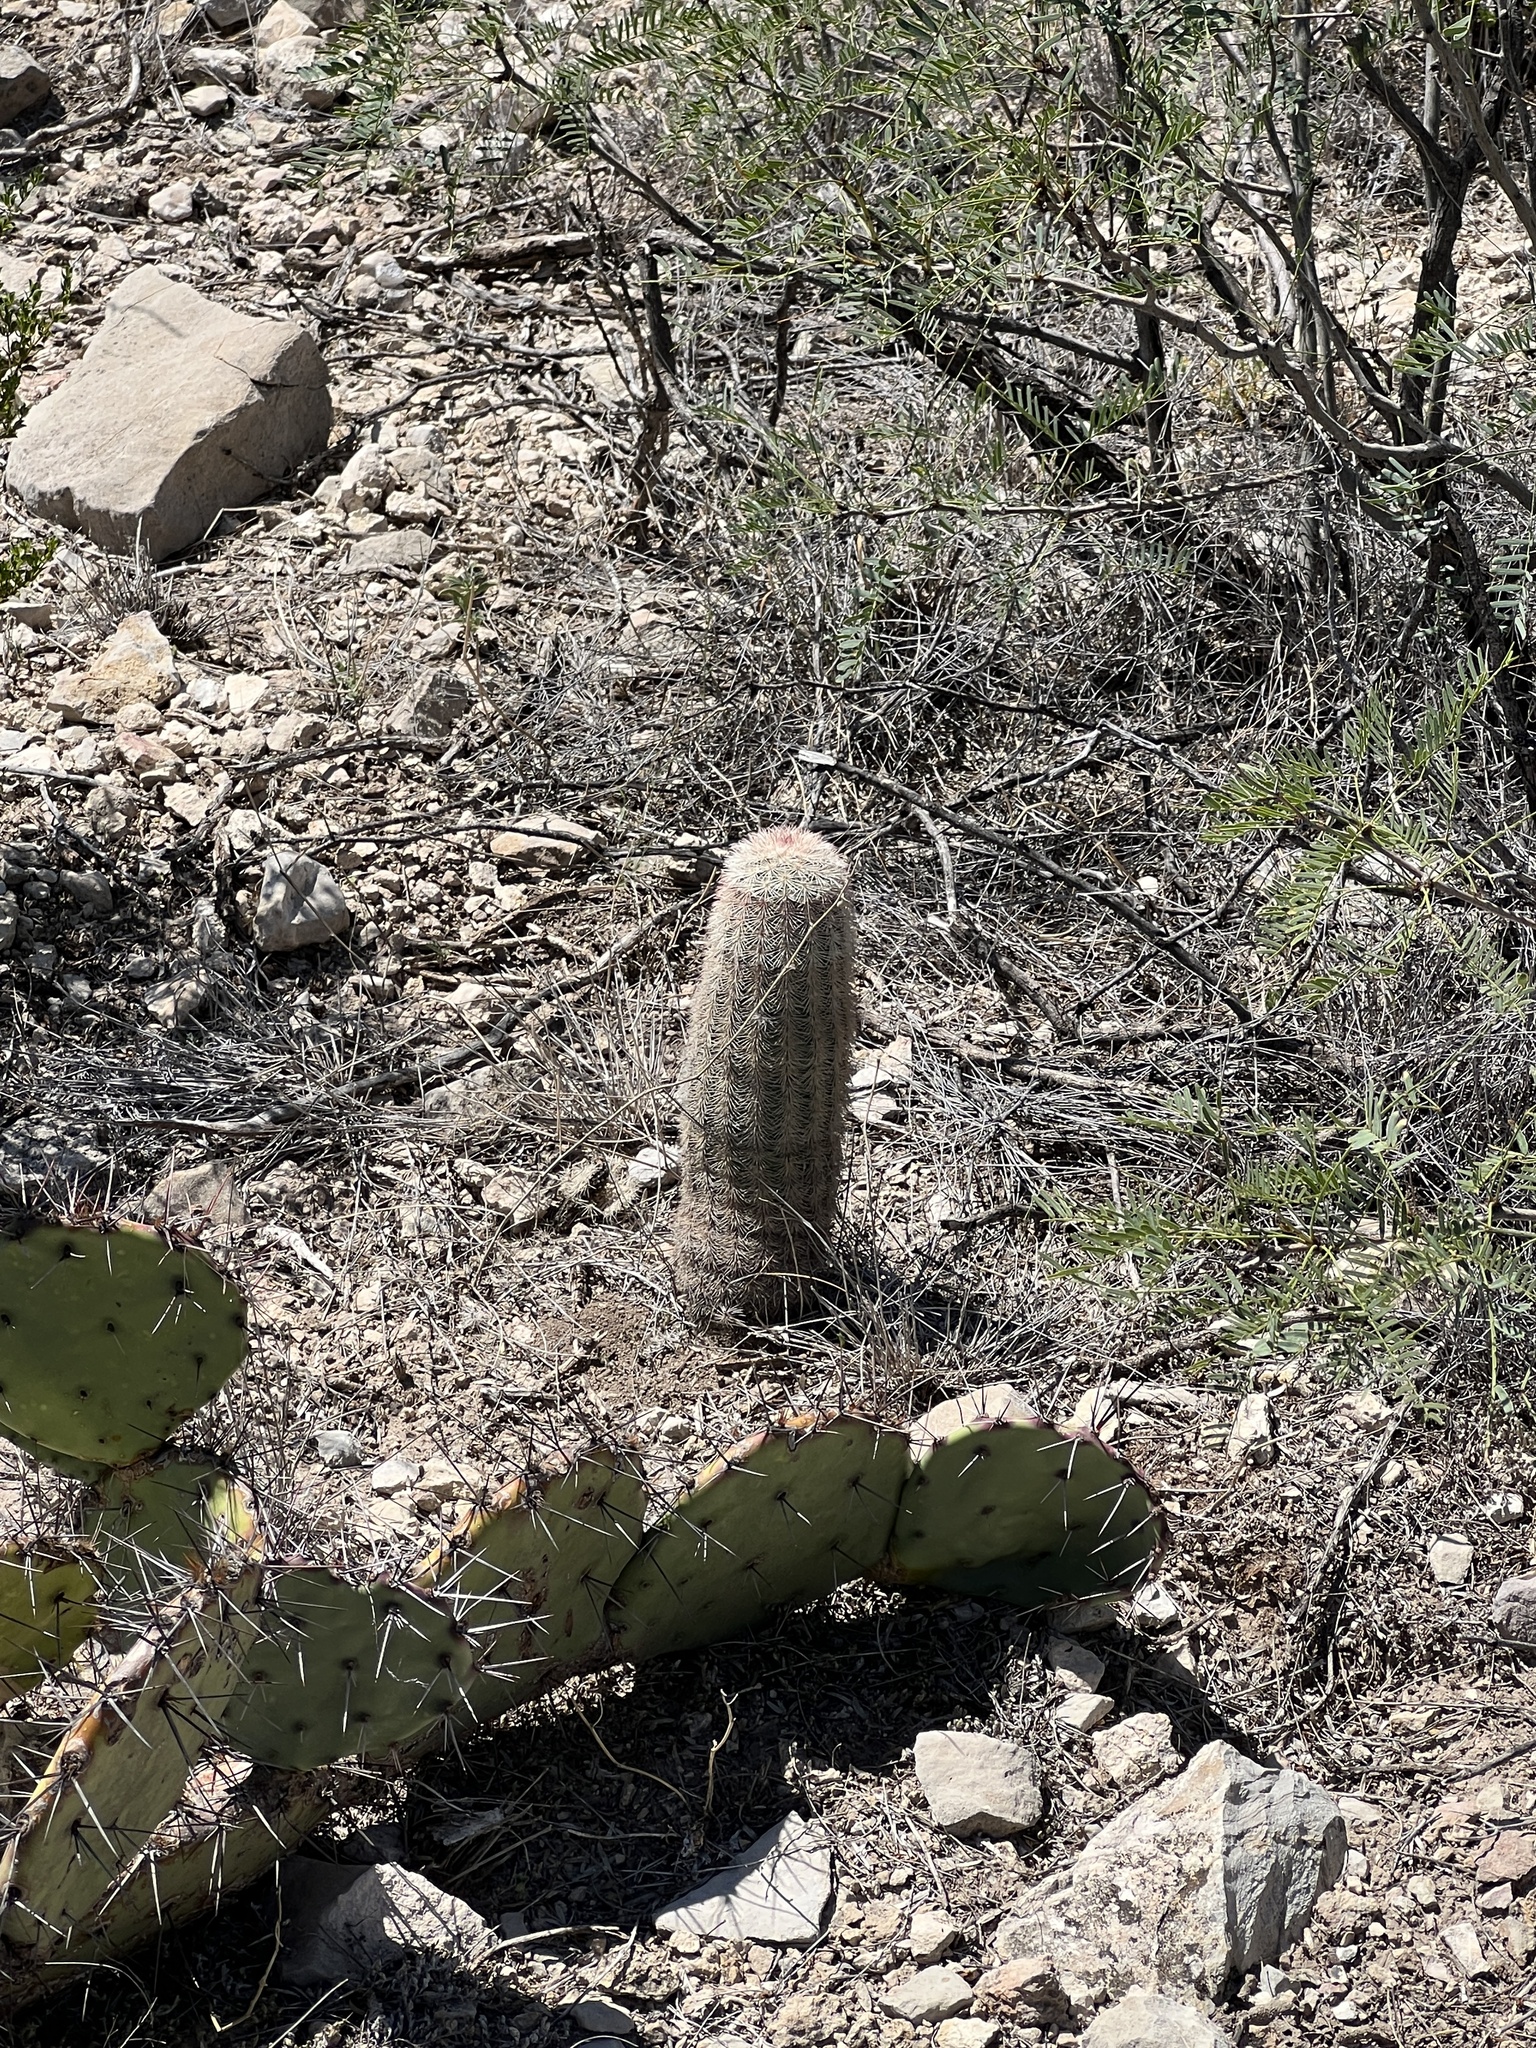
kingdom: Plantae
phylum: Tracheophyta
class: Magnoliopsida
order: Caryophyllales
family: Cactaceae
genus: Echinocereus
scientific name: Echinocereus dasyacanthus
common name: Spiny hedgehog cactus
